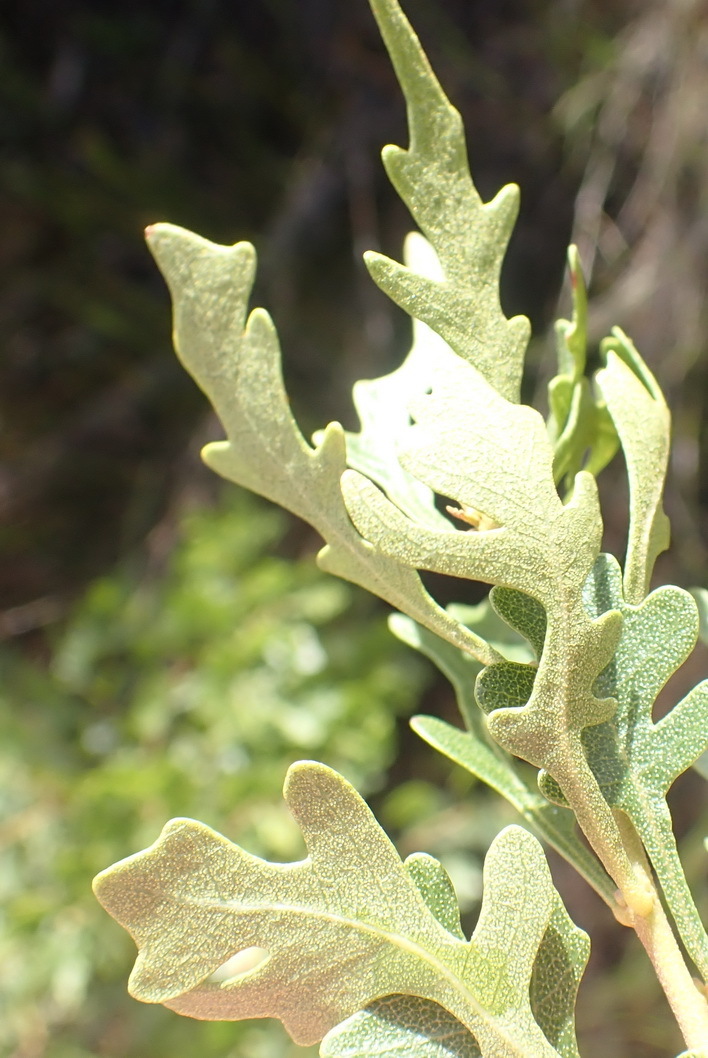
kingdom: Plantae
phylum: Tracheophyta
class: Magnoliopsida
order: Fagales
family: Myricaceae
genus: Morella
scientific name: Morella quercifolia
